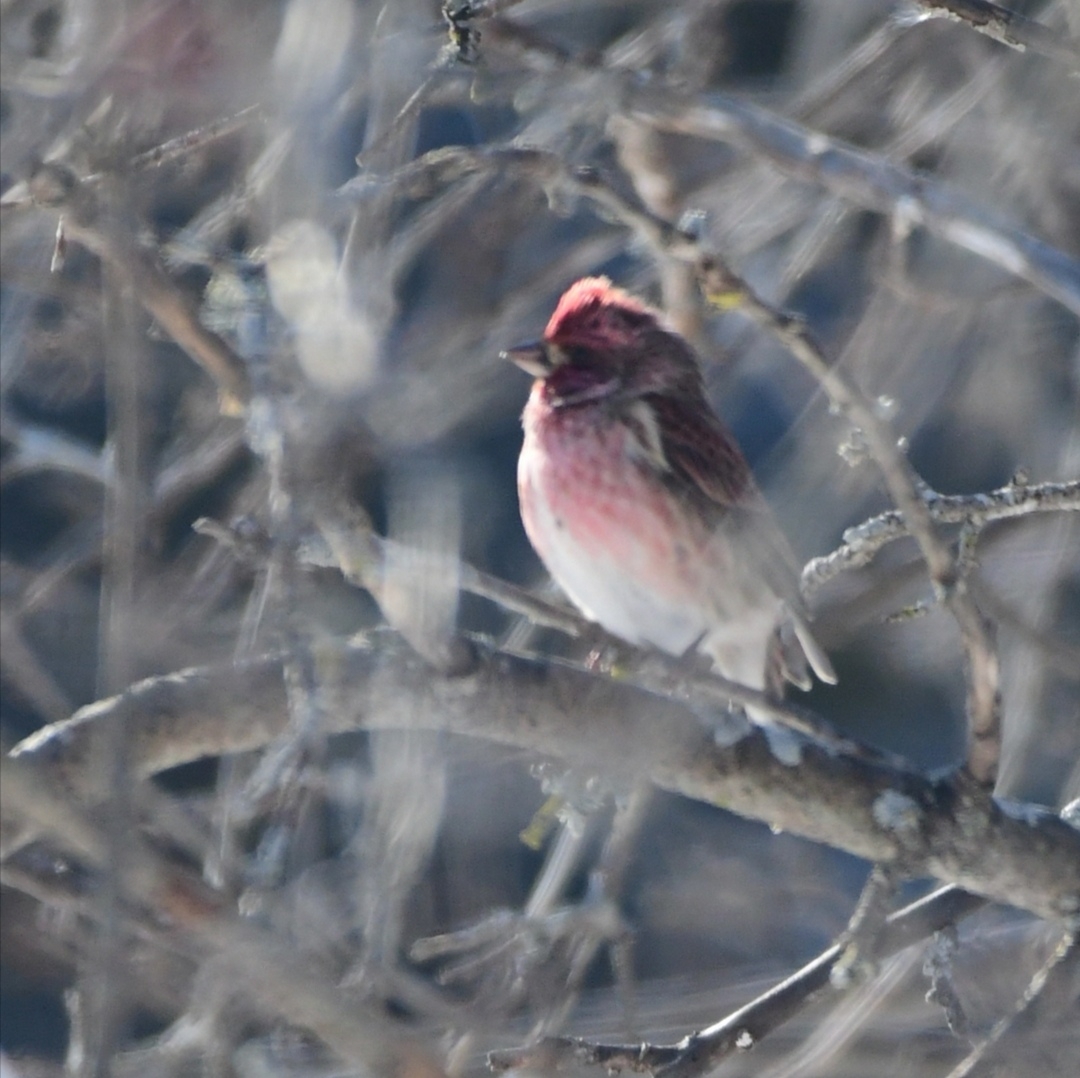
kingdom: Animalia
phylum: Chordata
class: Aves
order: Passeriformes
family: Fringillidae
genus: Haemorhous
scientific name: Haemorhous purpureus
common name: Purple finch
